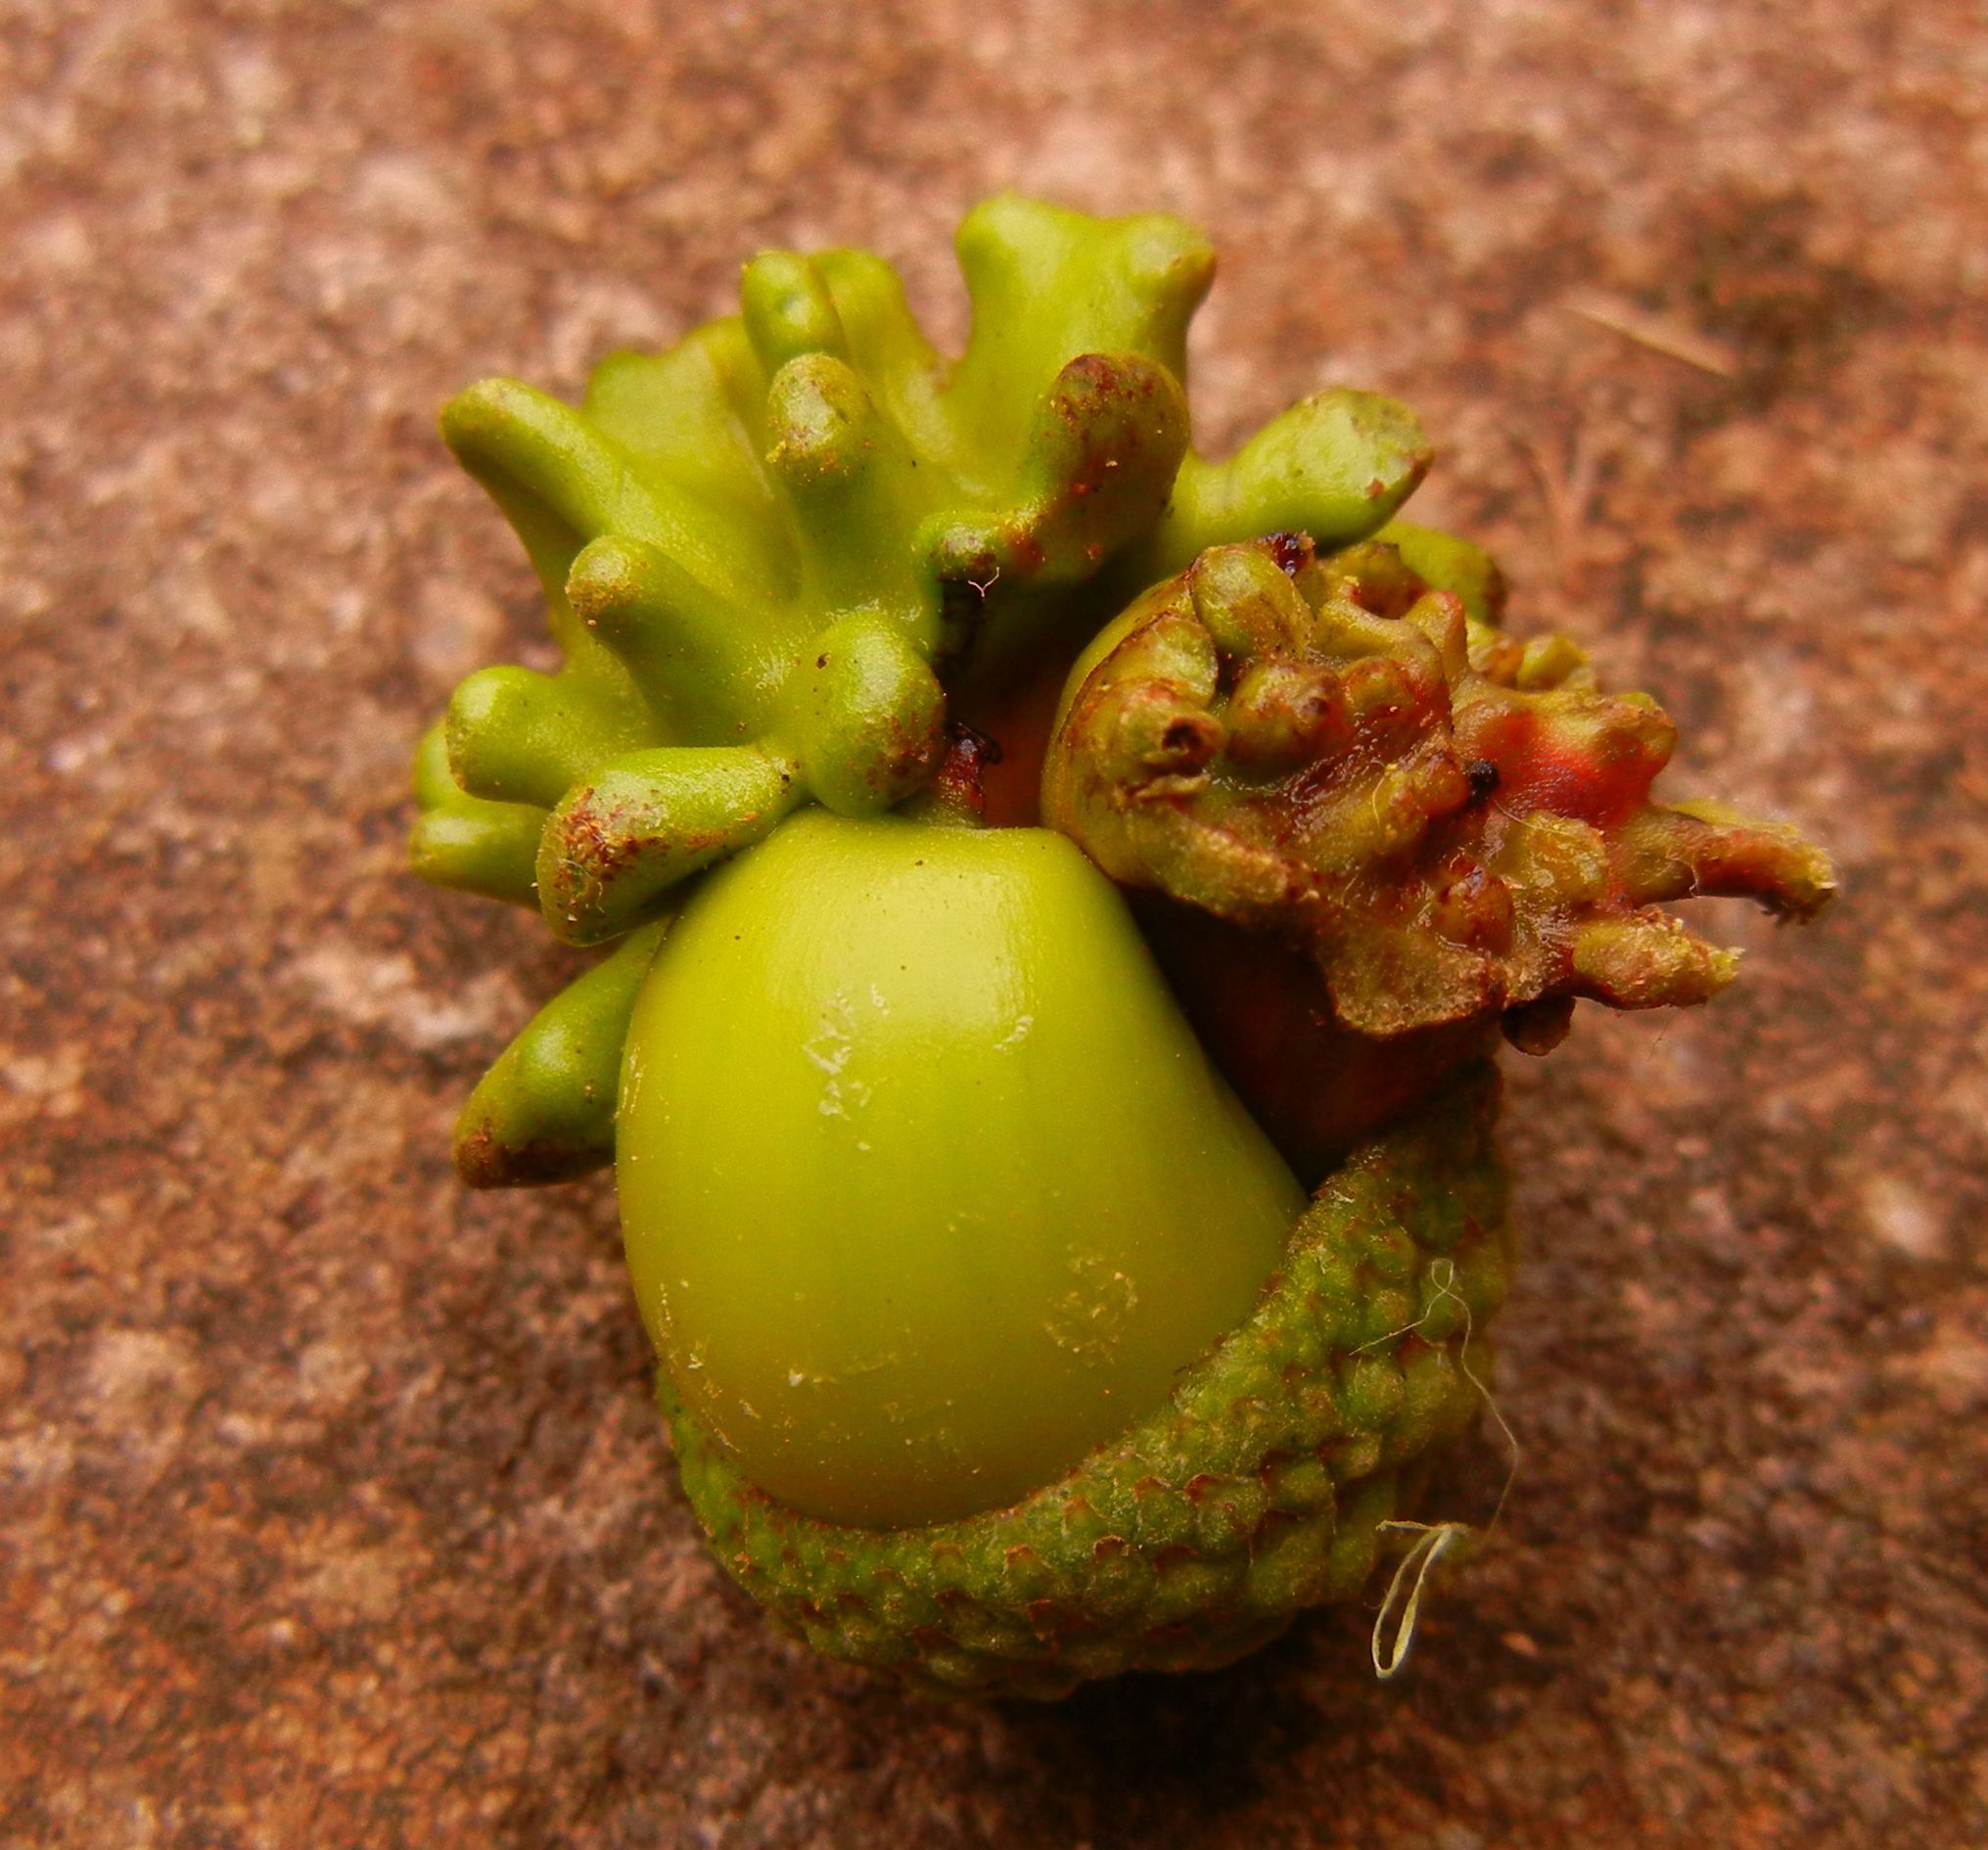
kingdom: Animalia
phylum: Arthropoda
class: Insecta
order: Hymenoptera
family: Cynipidae
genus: Andricus
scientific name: Andricus quercuscalicis
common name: Knopper gall
